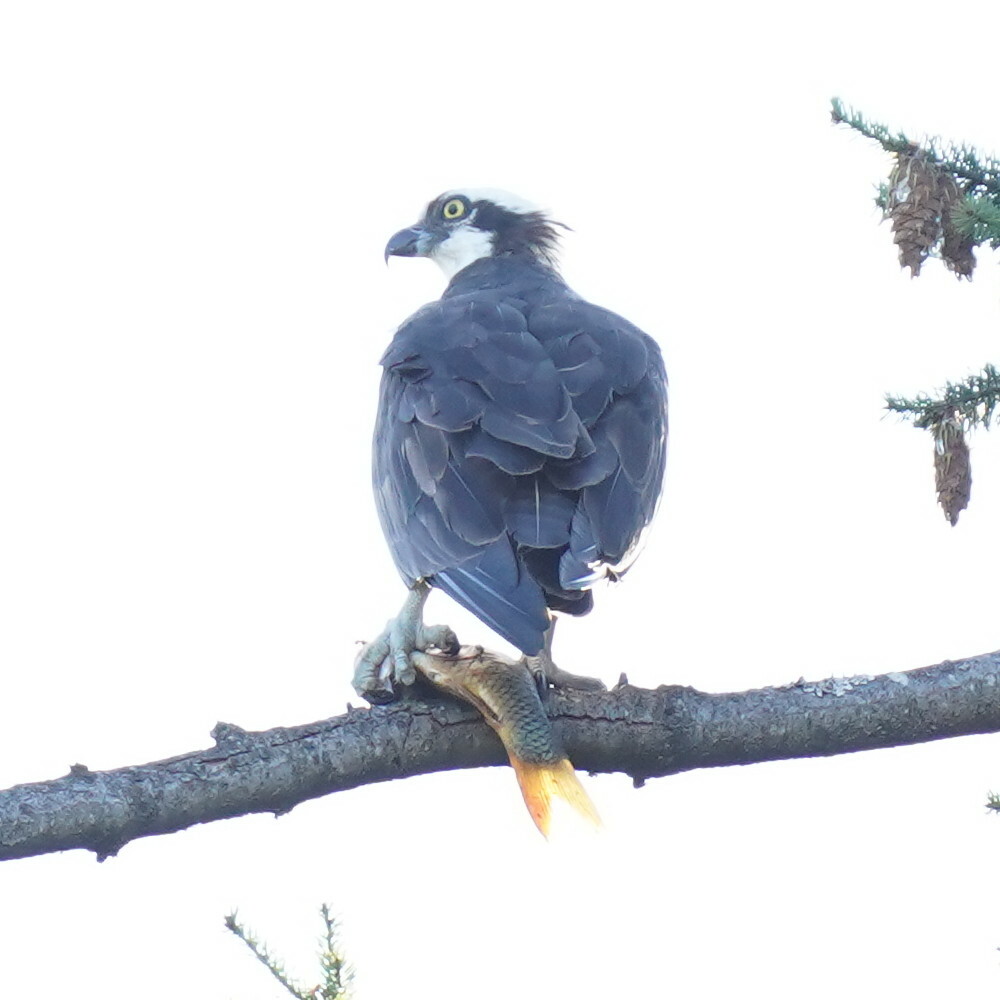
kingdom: Animalia
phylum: Chordata
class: Aves
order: Accipitriformes
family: Pandionidae
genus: Pandion
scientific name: Pandion haliaetus
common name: Osprey
